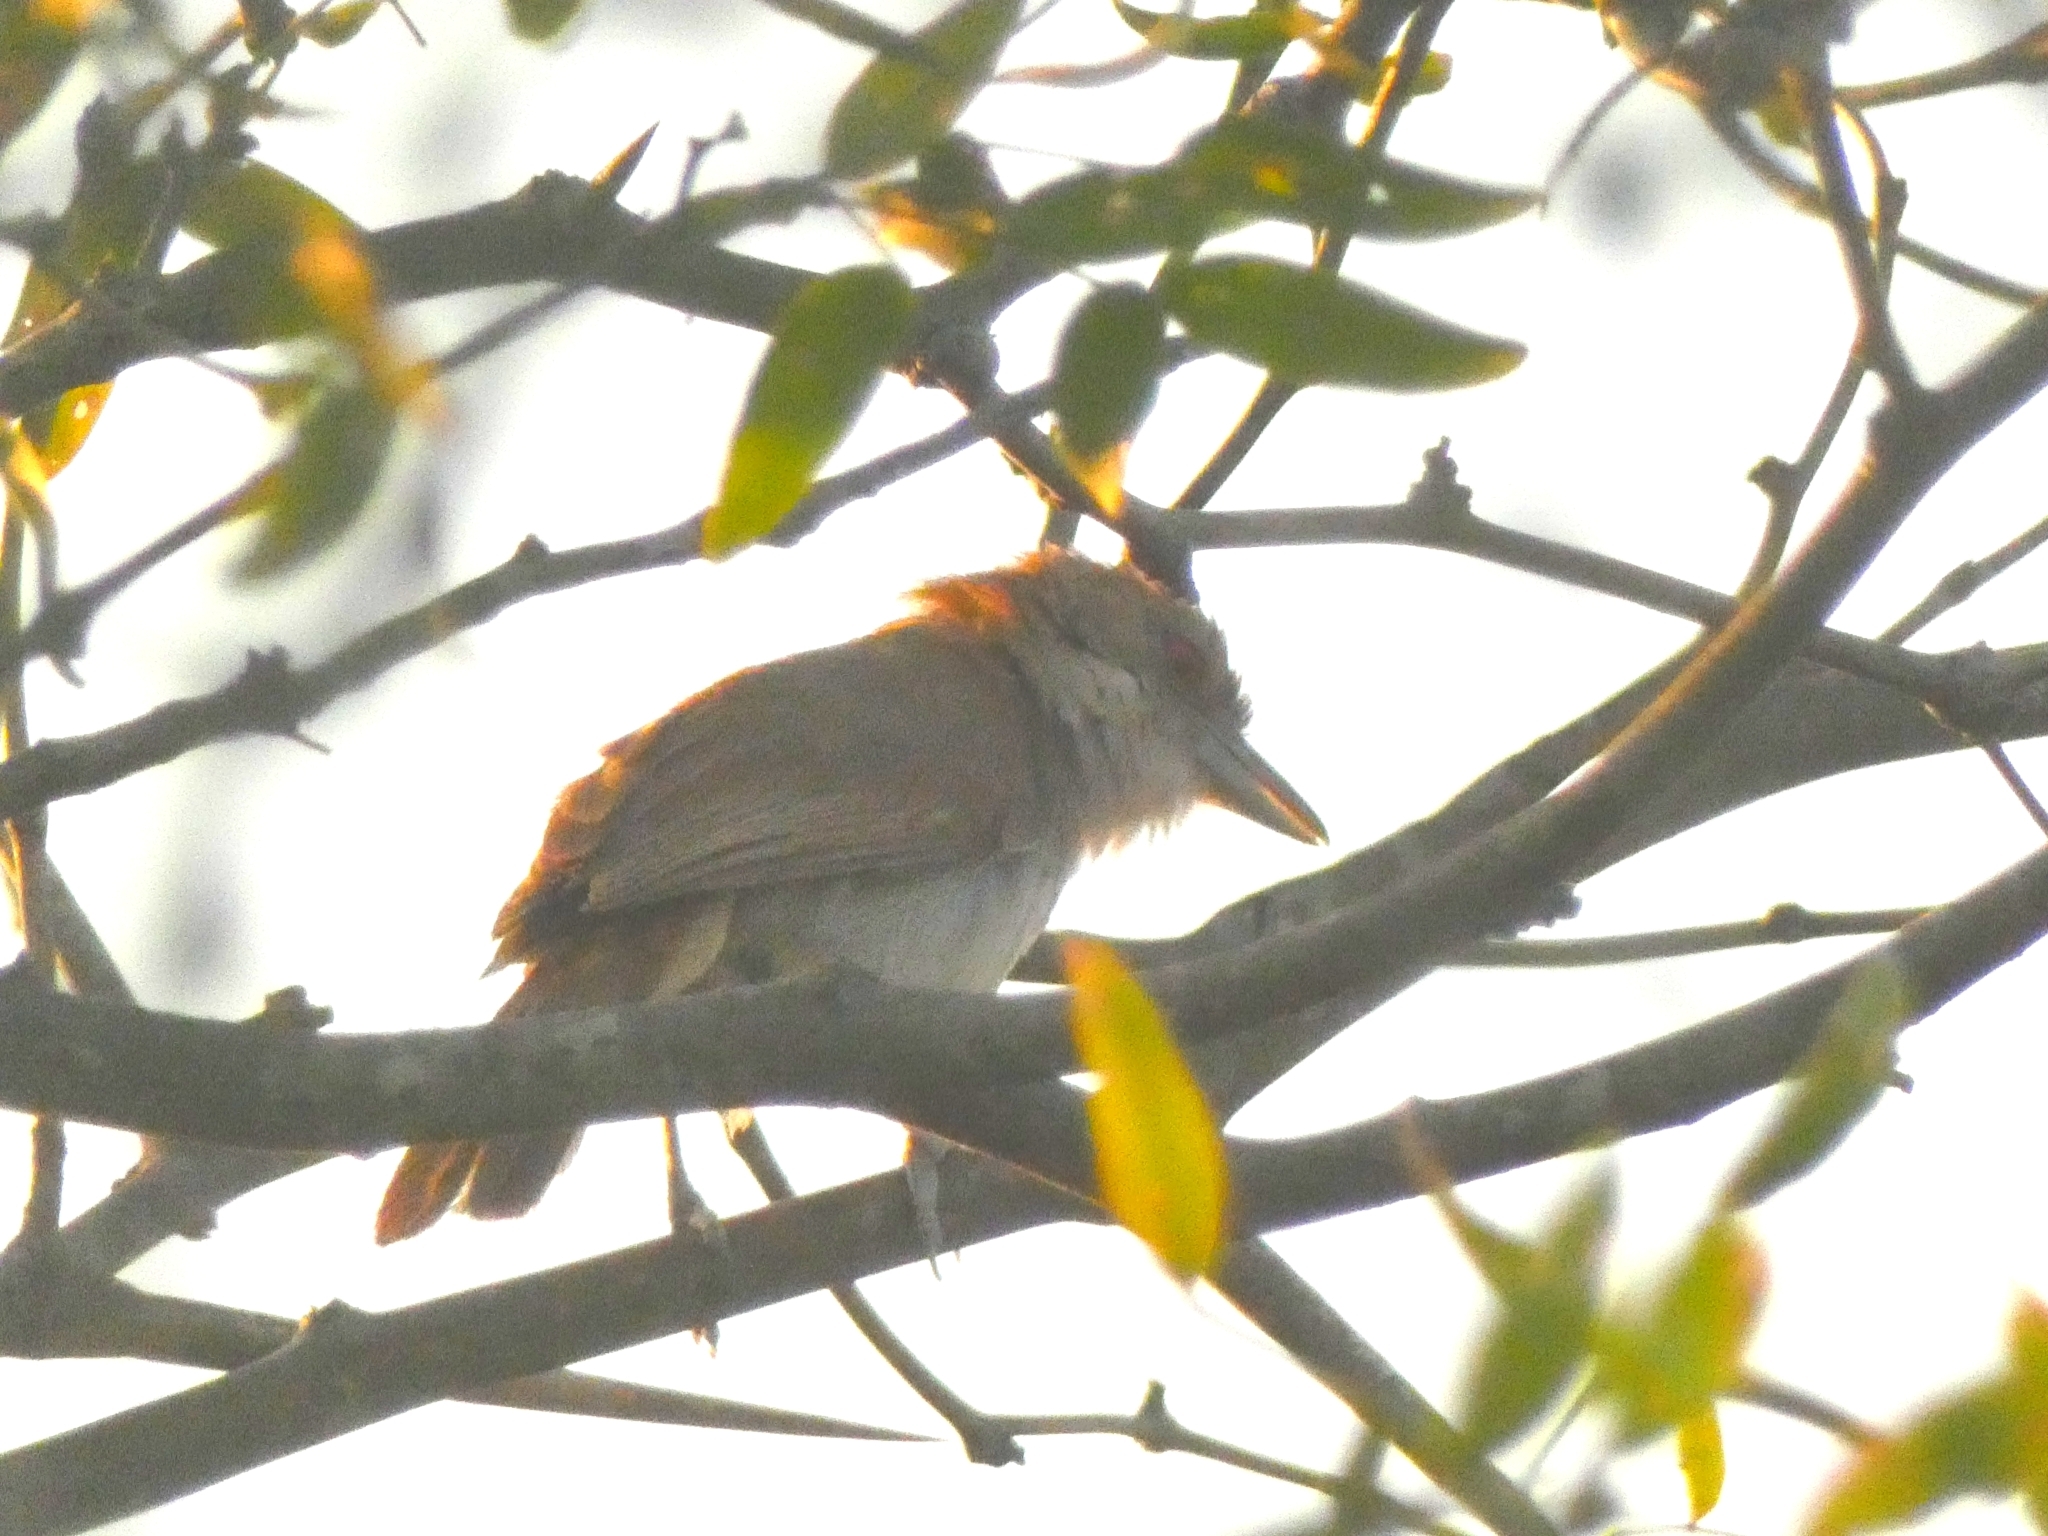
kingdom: Animalia
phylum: Chordata
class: Aves
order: Passeriformes
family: Thamnophilidae
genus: Taraba
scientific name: Taraba major
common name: Great antshrike
